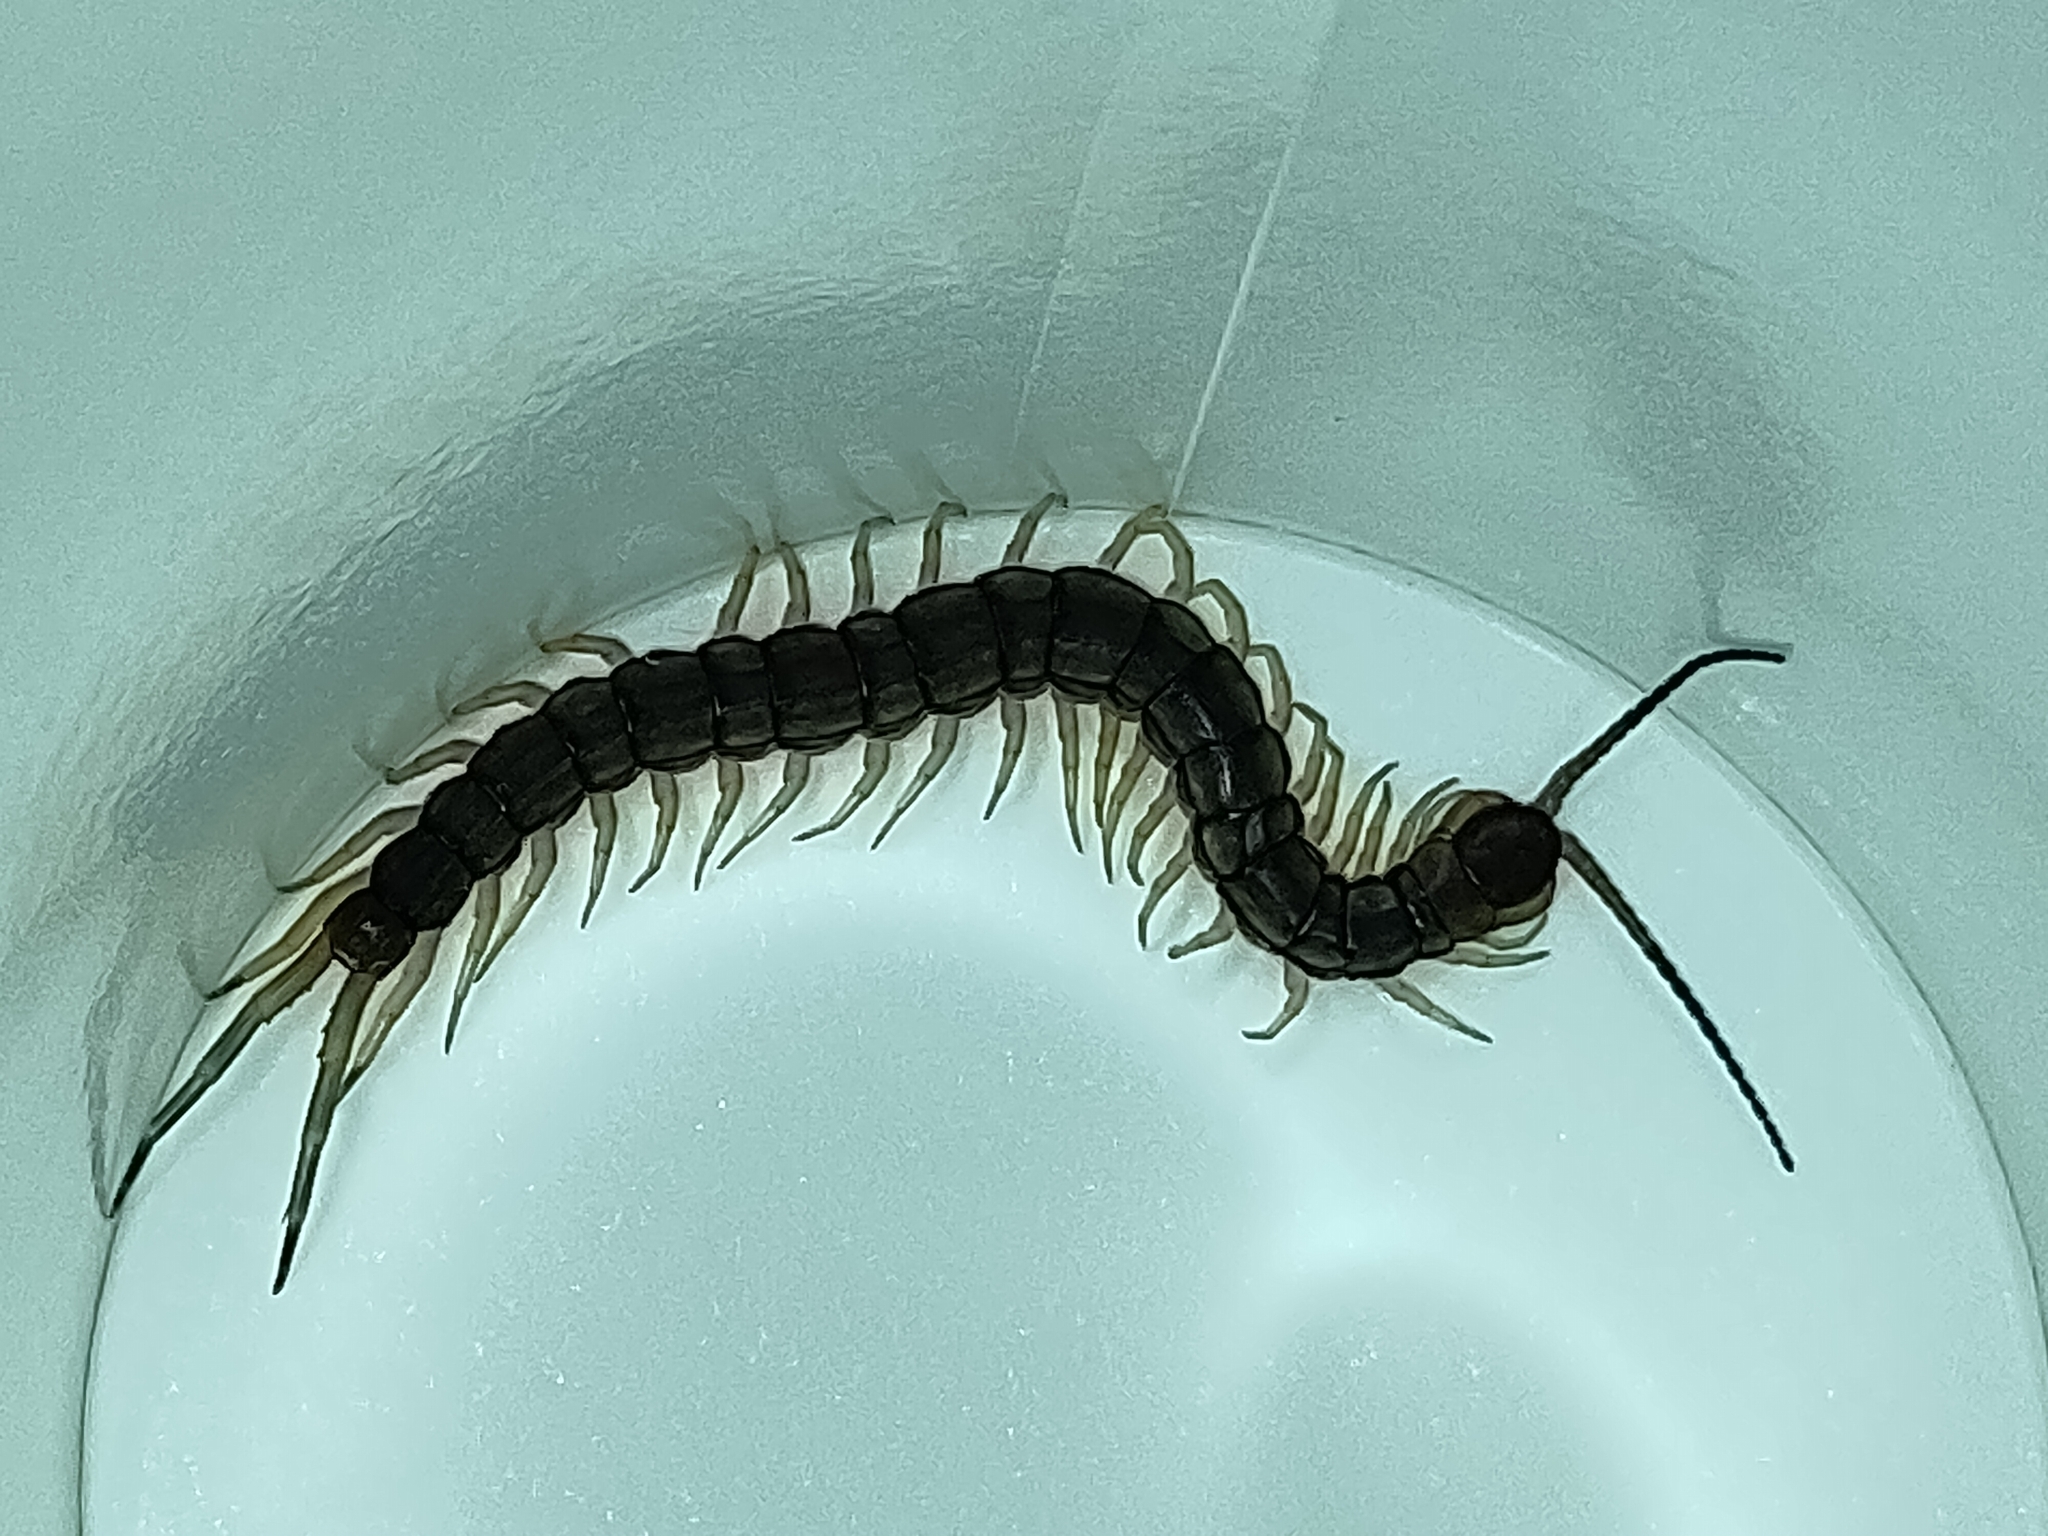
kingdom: Animalia
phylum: Arthropoda
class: Chilopoda
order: Scolopendromorpha
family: Scolopendridae
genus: Scolopendra
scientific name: Scolopendra mutilans
